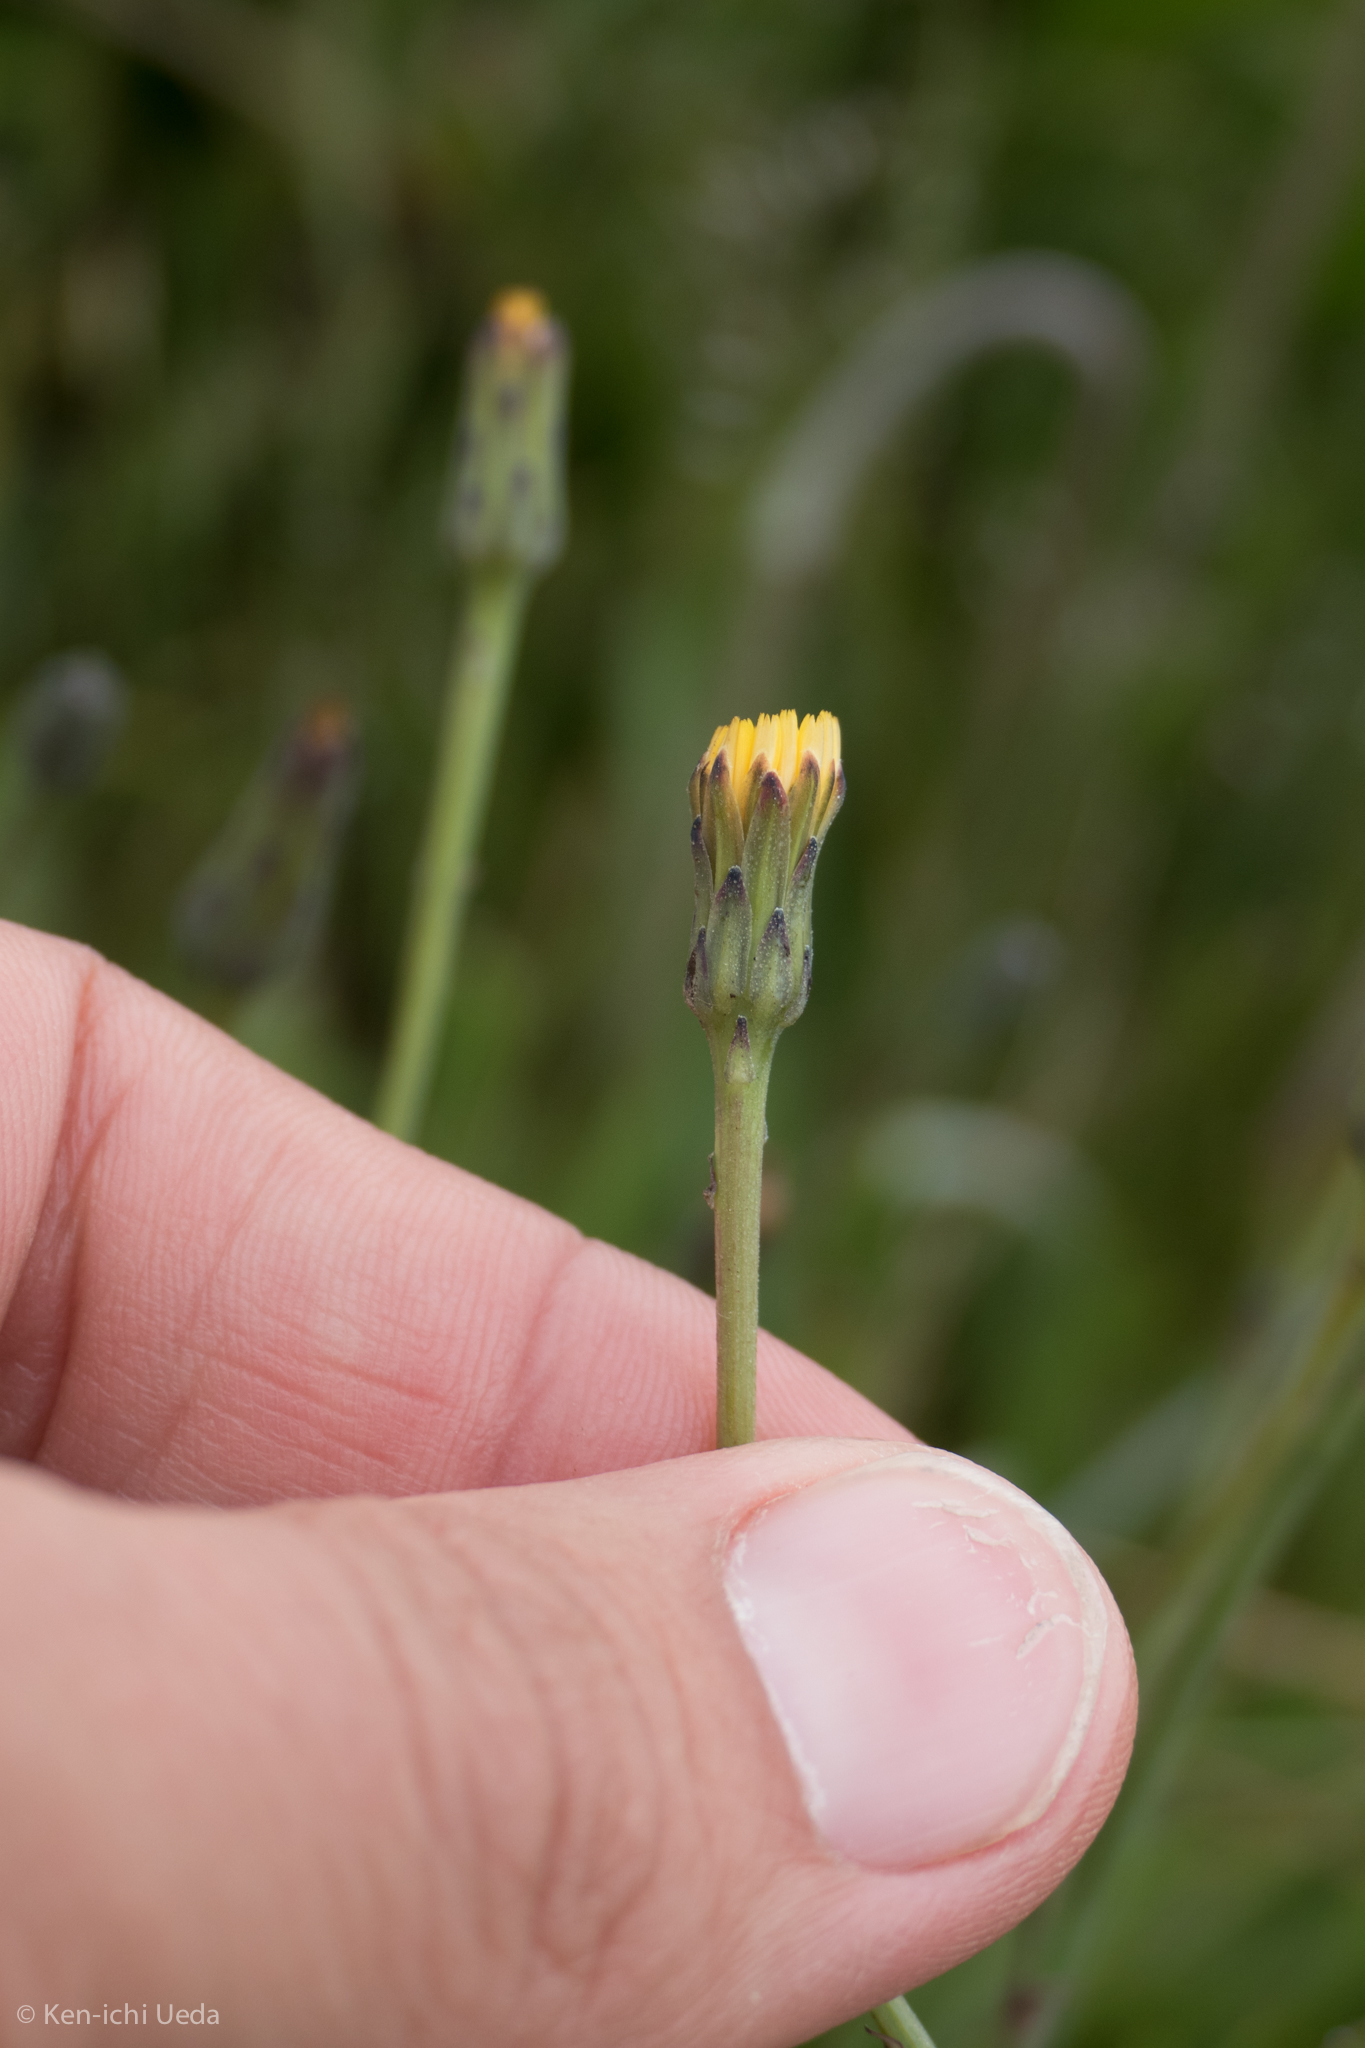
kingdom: Plantae
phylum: Tracheophyta
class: Magnoliopsida
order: Asterales
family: Asteraceae
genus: Hypochaeris
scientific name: Hypochaeris glabra
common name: Smooth catsear
